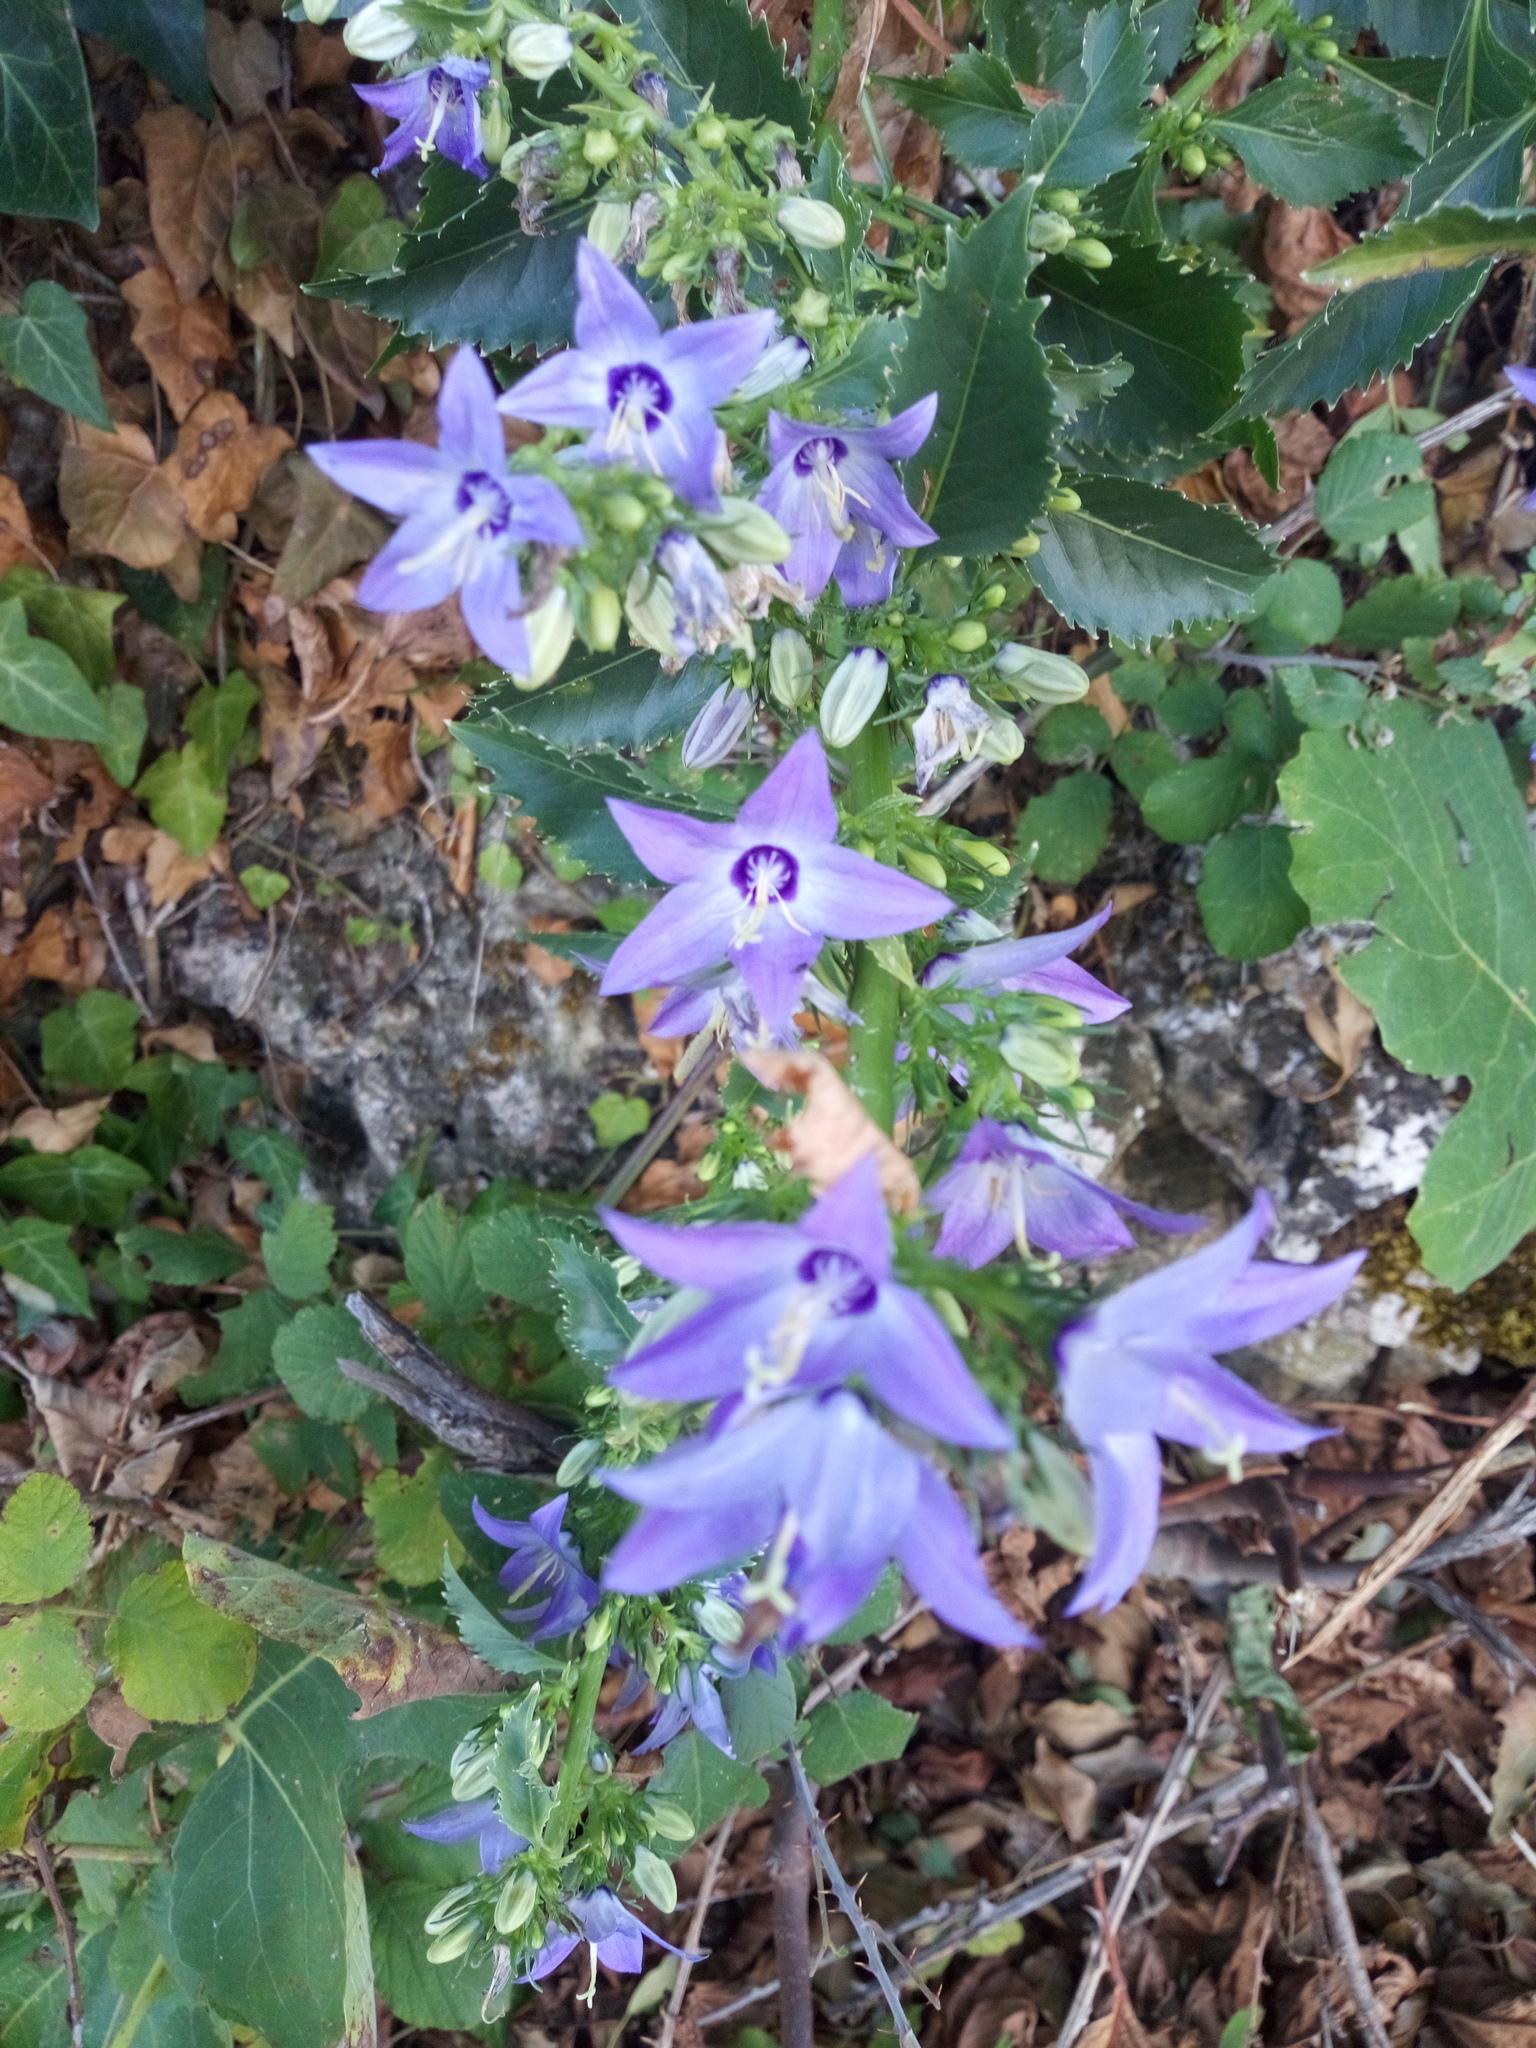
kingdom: Plantae
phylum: Tracheophyta
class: Magnoliopsida
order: Asterales
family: Campanulaceae
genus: Campanula
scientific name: Campanula versicolor
